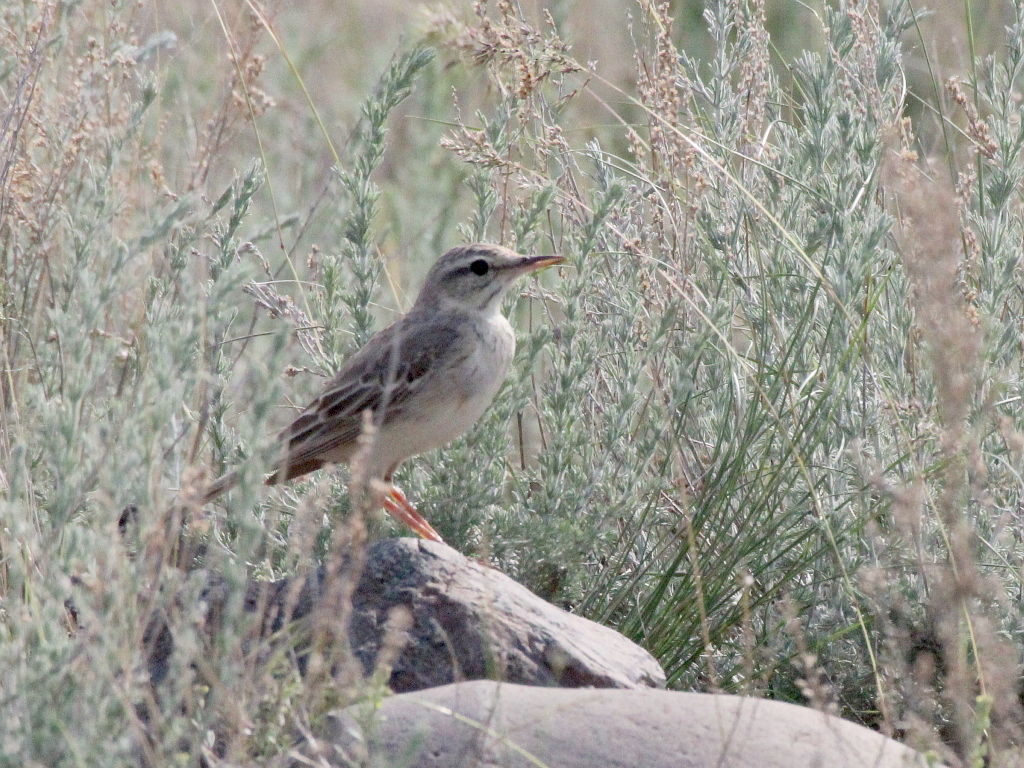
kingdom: Animalia
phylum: Chordata
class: Aves
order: Passeriformes
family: Motacillidae
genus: Anthus
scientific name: Anthus campestris
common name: Tawny pipit
